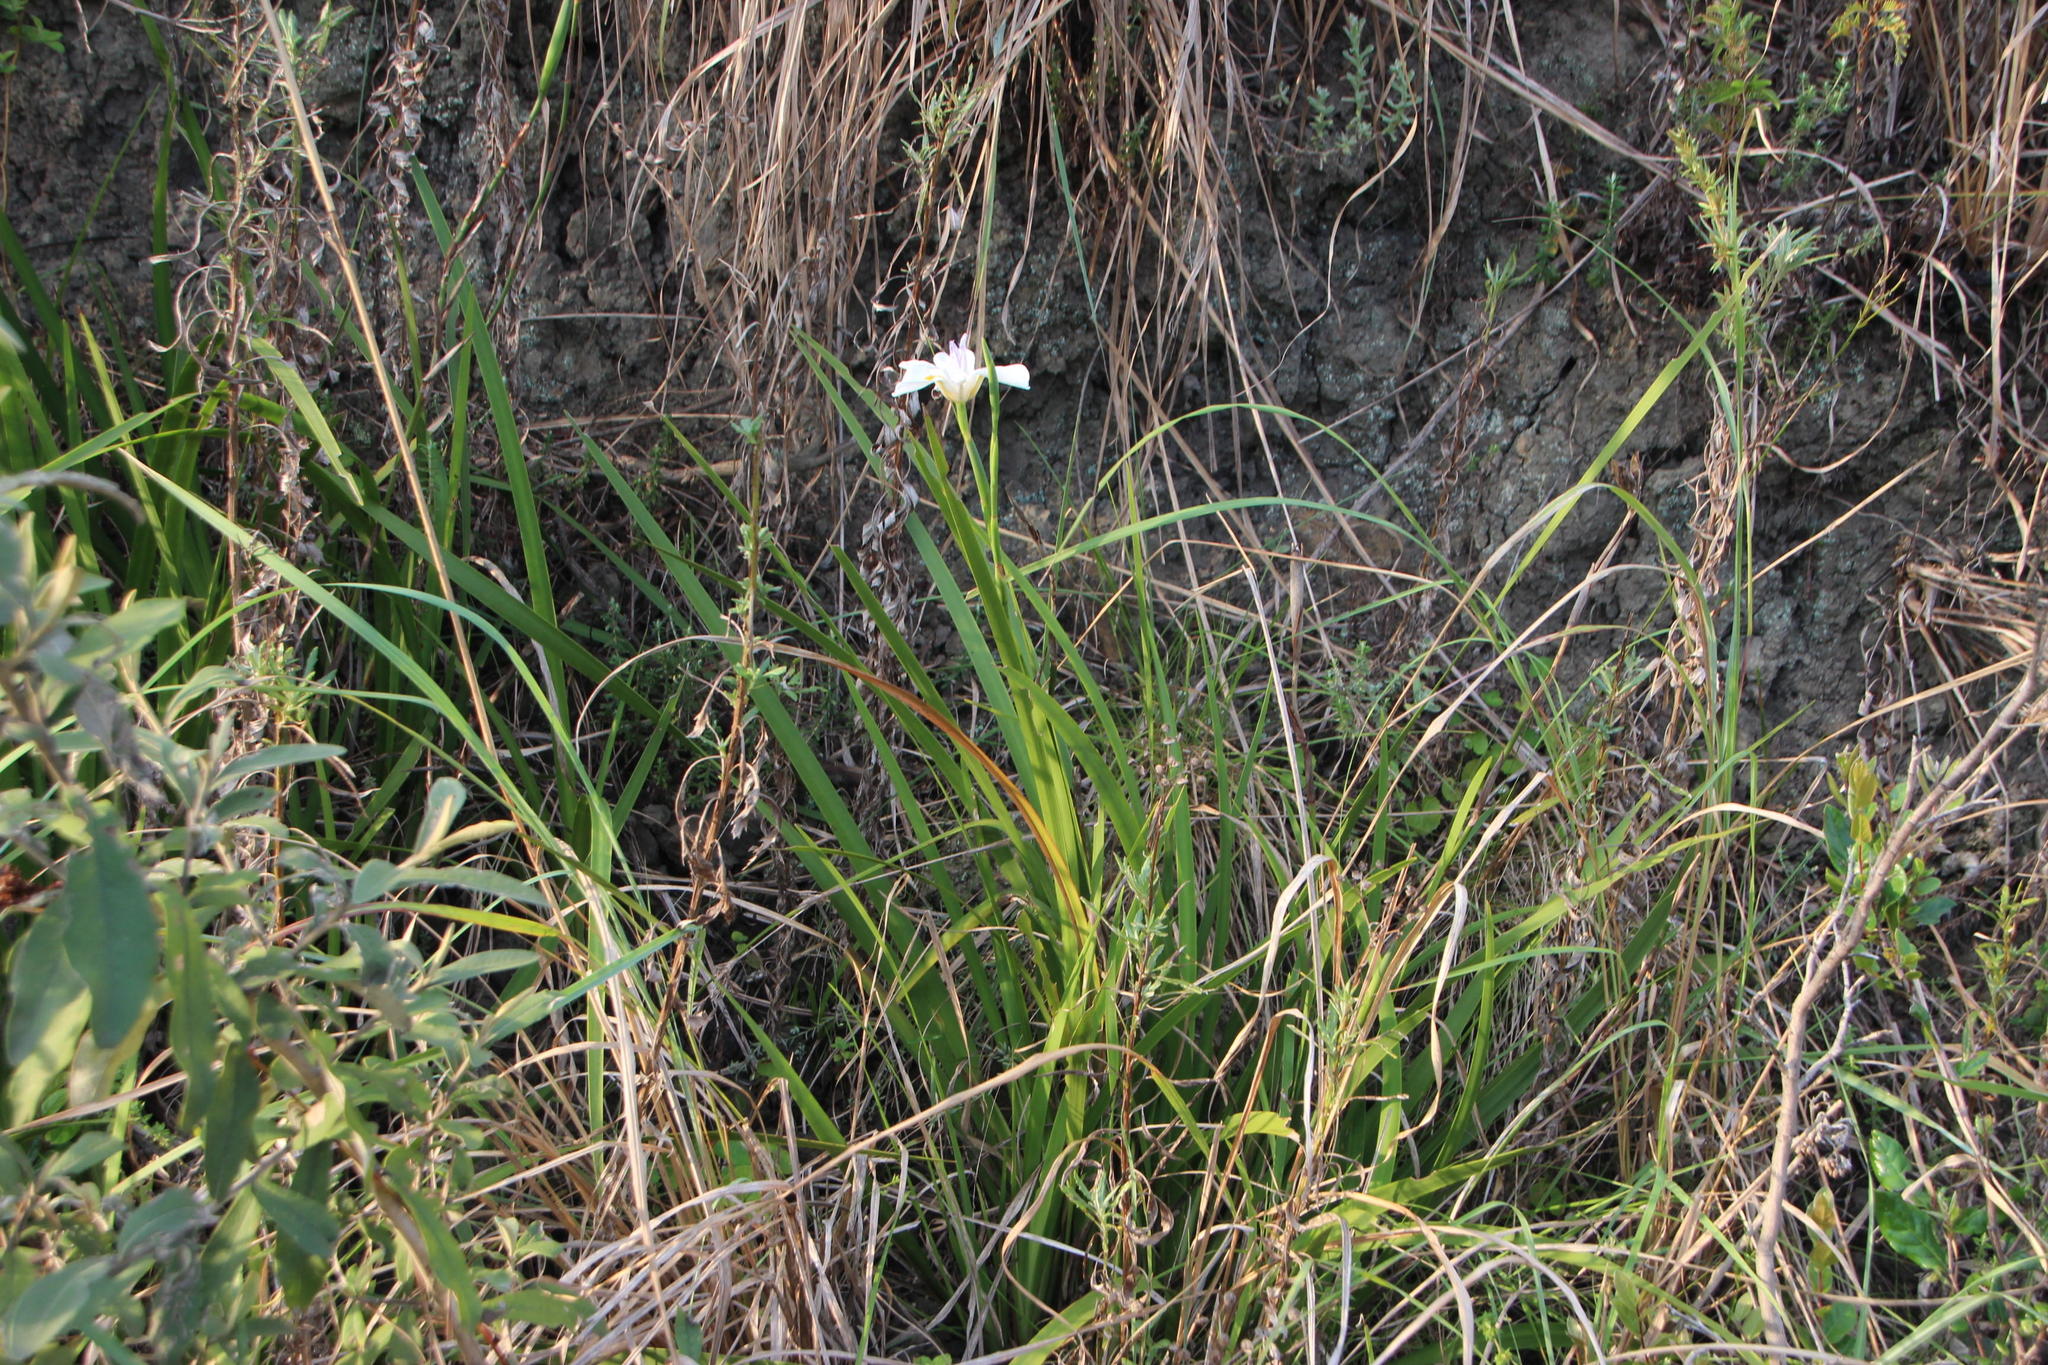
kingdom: Plantae
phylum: Tracheophyta
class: Liliopsida
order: Asparagales
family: Iridaceae
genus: Dietes
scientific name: Dietes grandiflora
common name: Wild iris
